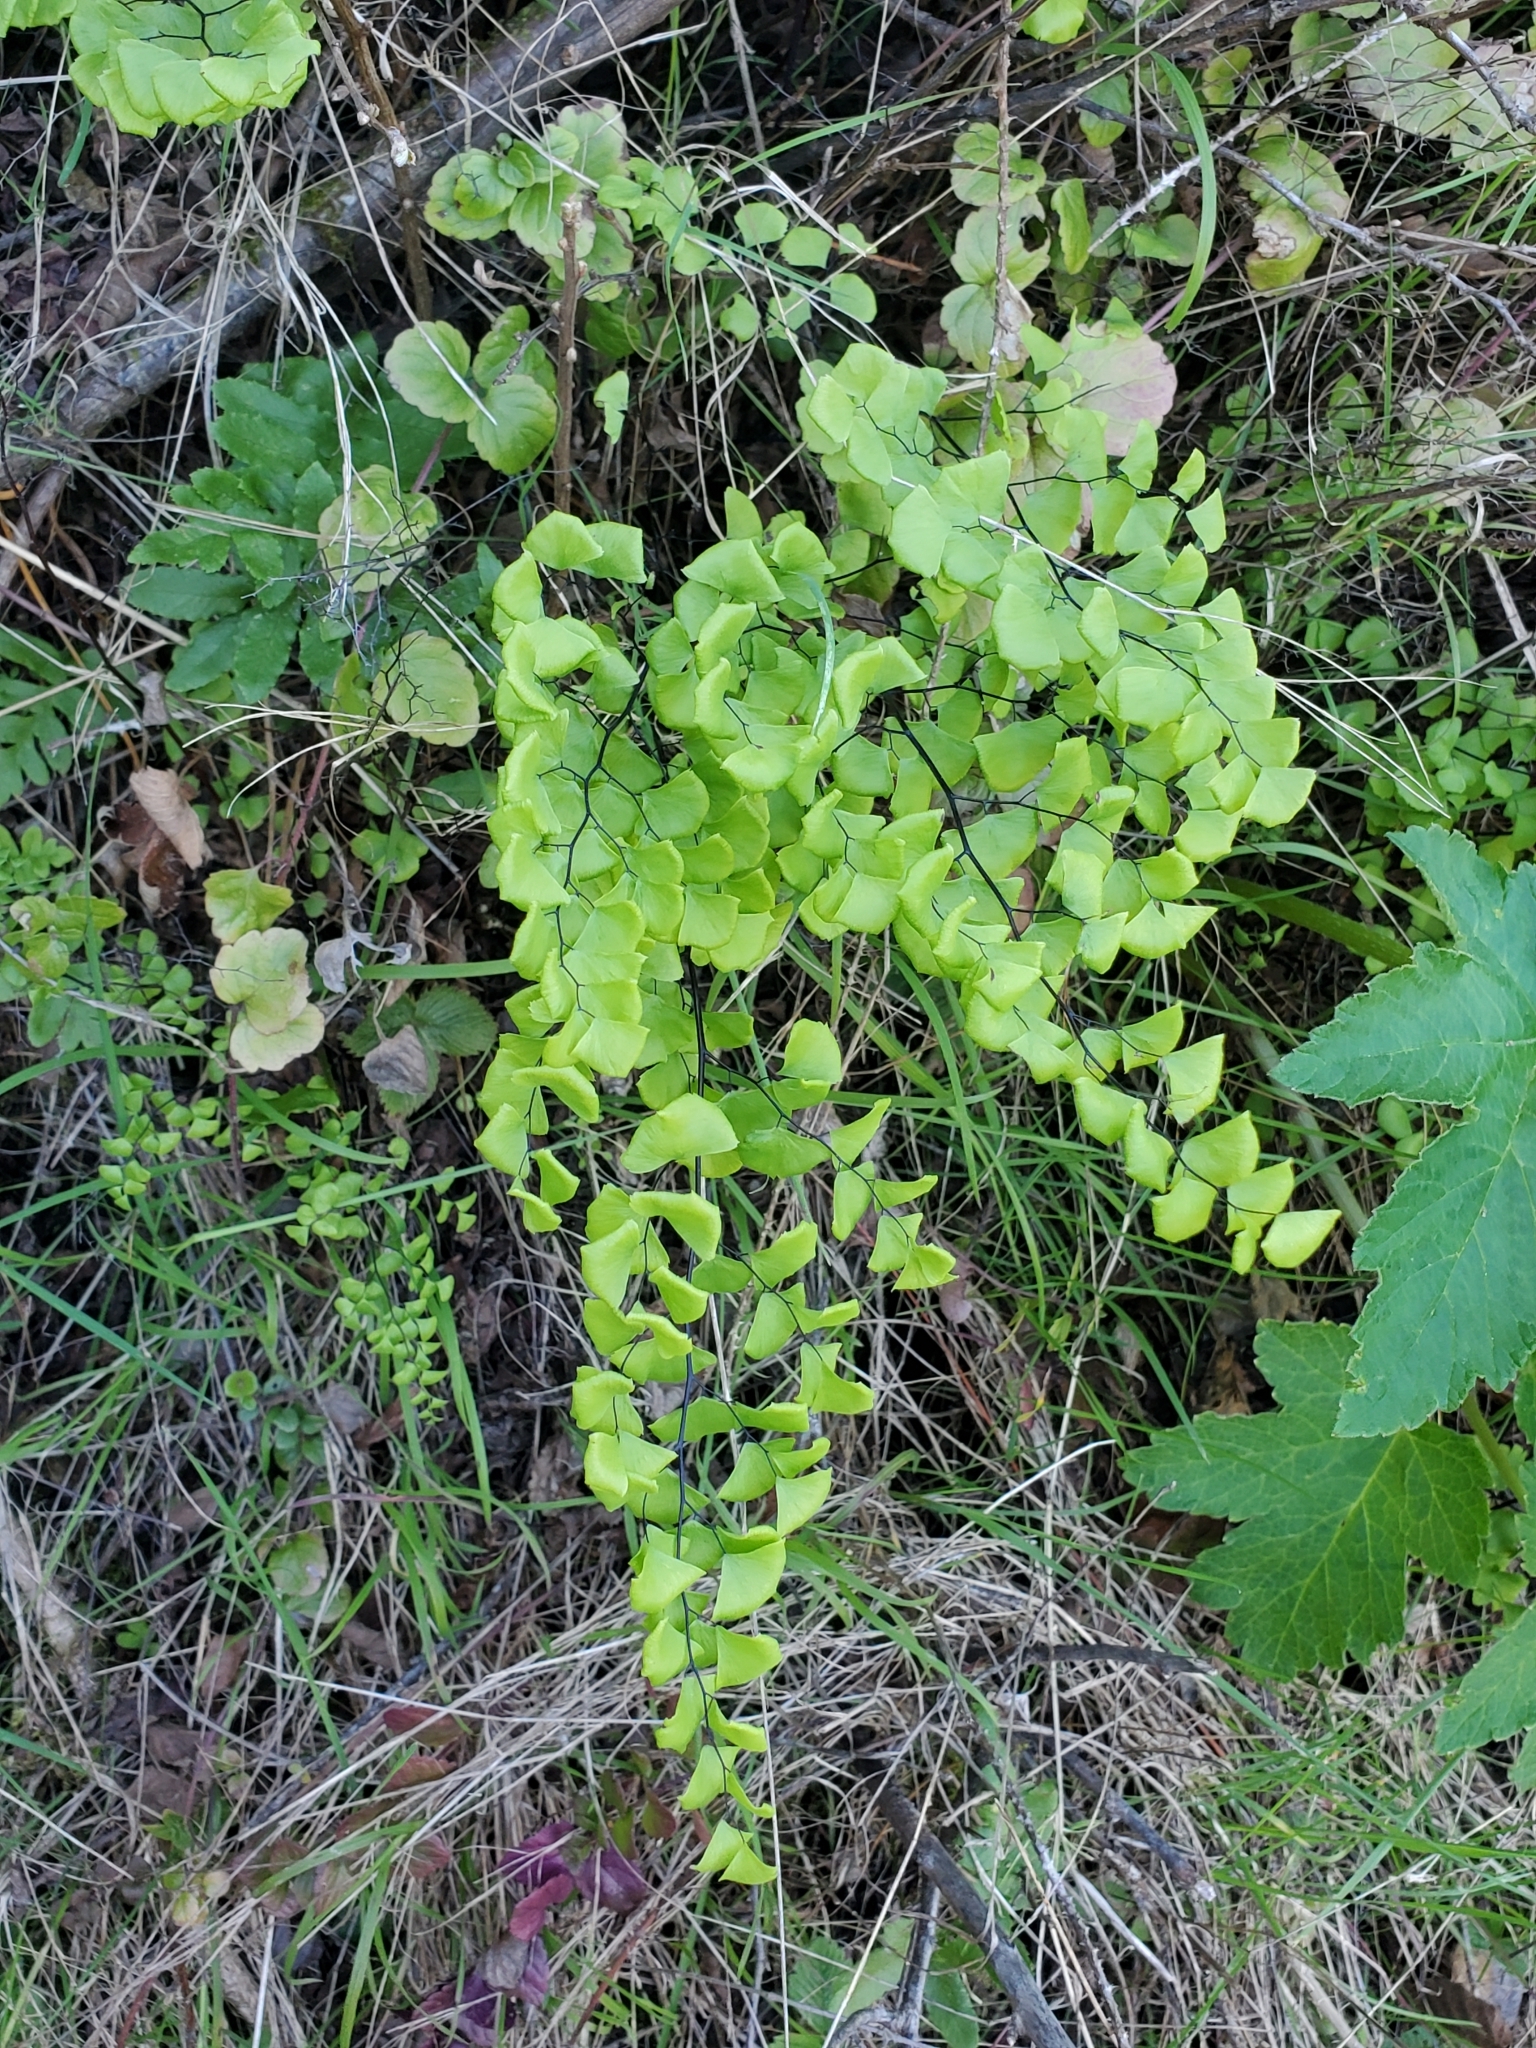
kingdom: Plantae
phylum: Tracheophyta
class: Polypodiopsida
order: Polypodiales
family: Pteridaceae
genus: Adiantum
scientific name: Adiantum jordanii
